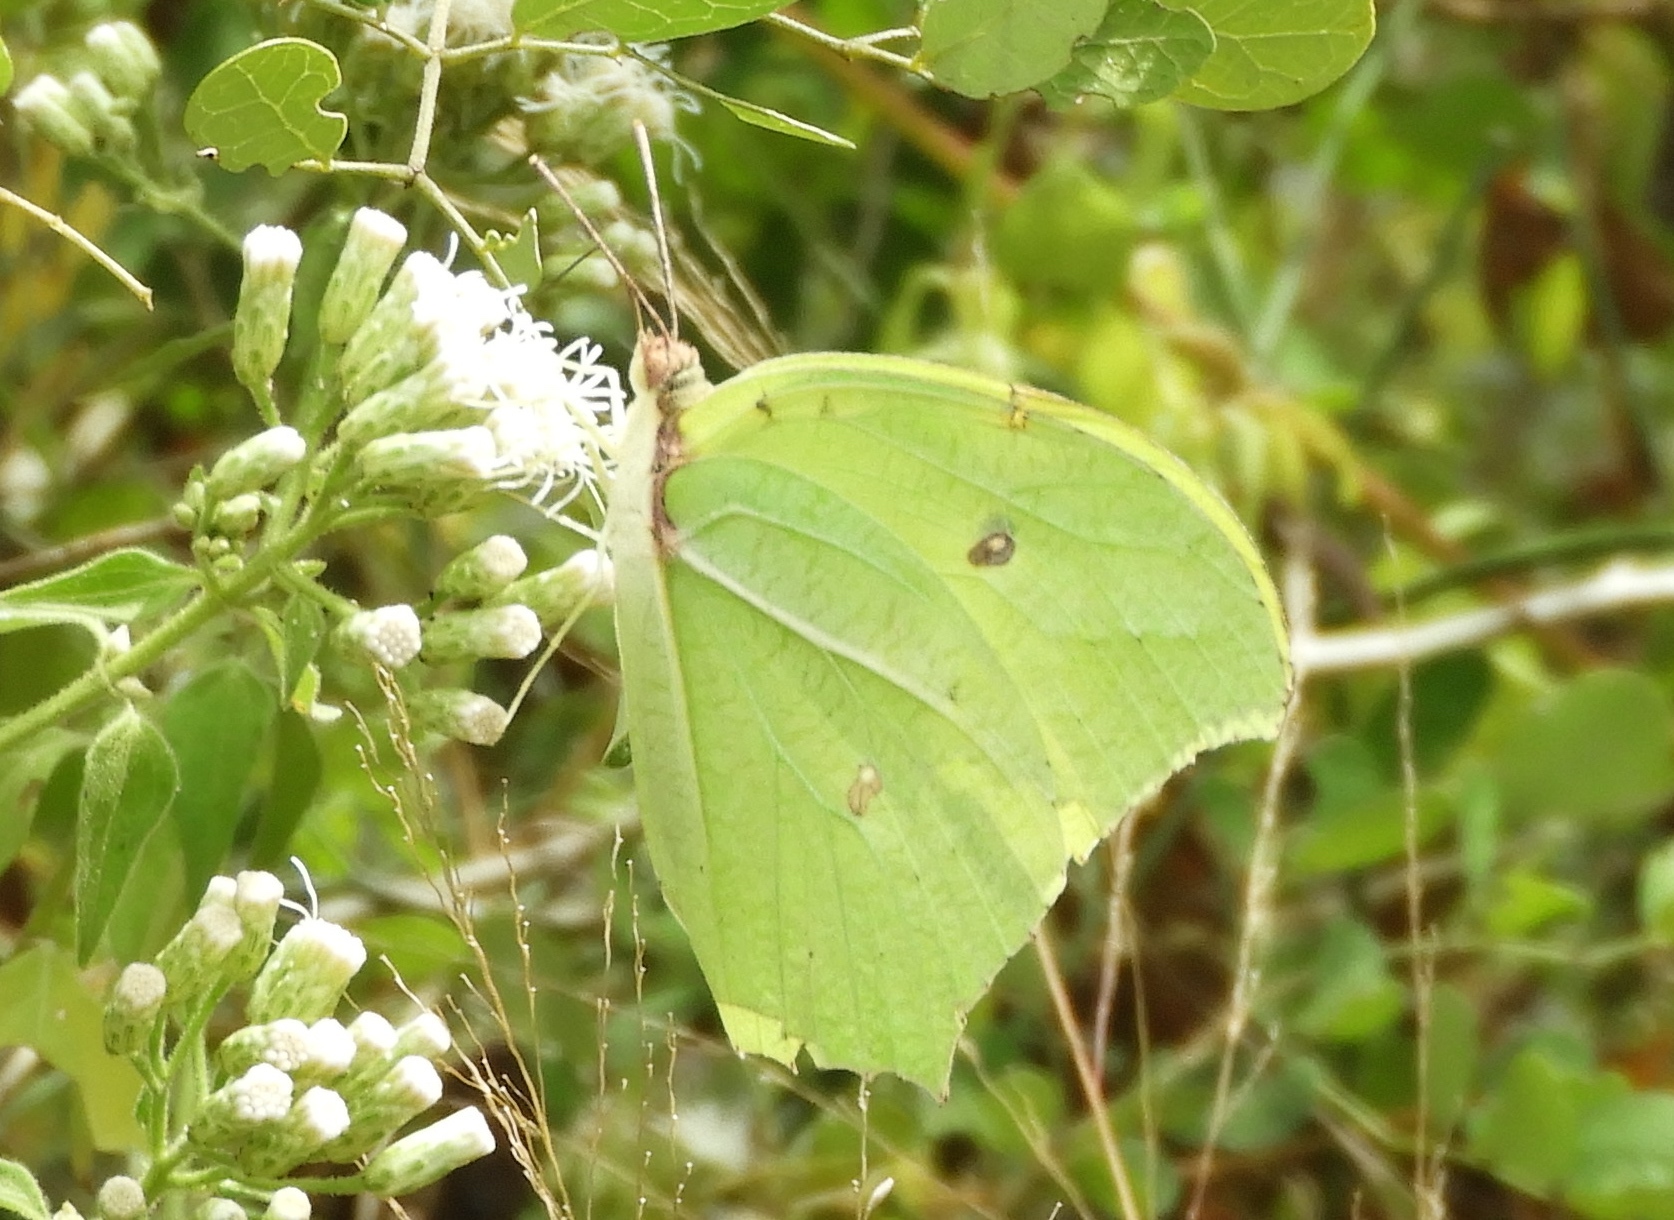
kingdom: Animalia
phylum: Arthropoda
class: Insecta
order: Lepidoptera
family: Pieridae
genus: Anteos
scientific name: Anteos maerula
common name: Angled sulphur
